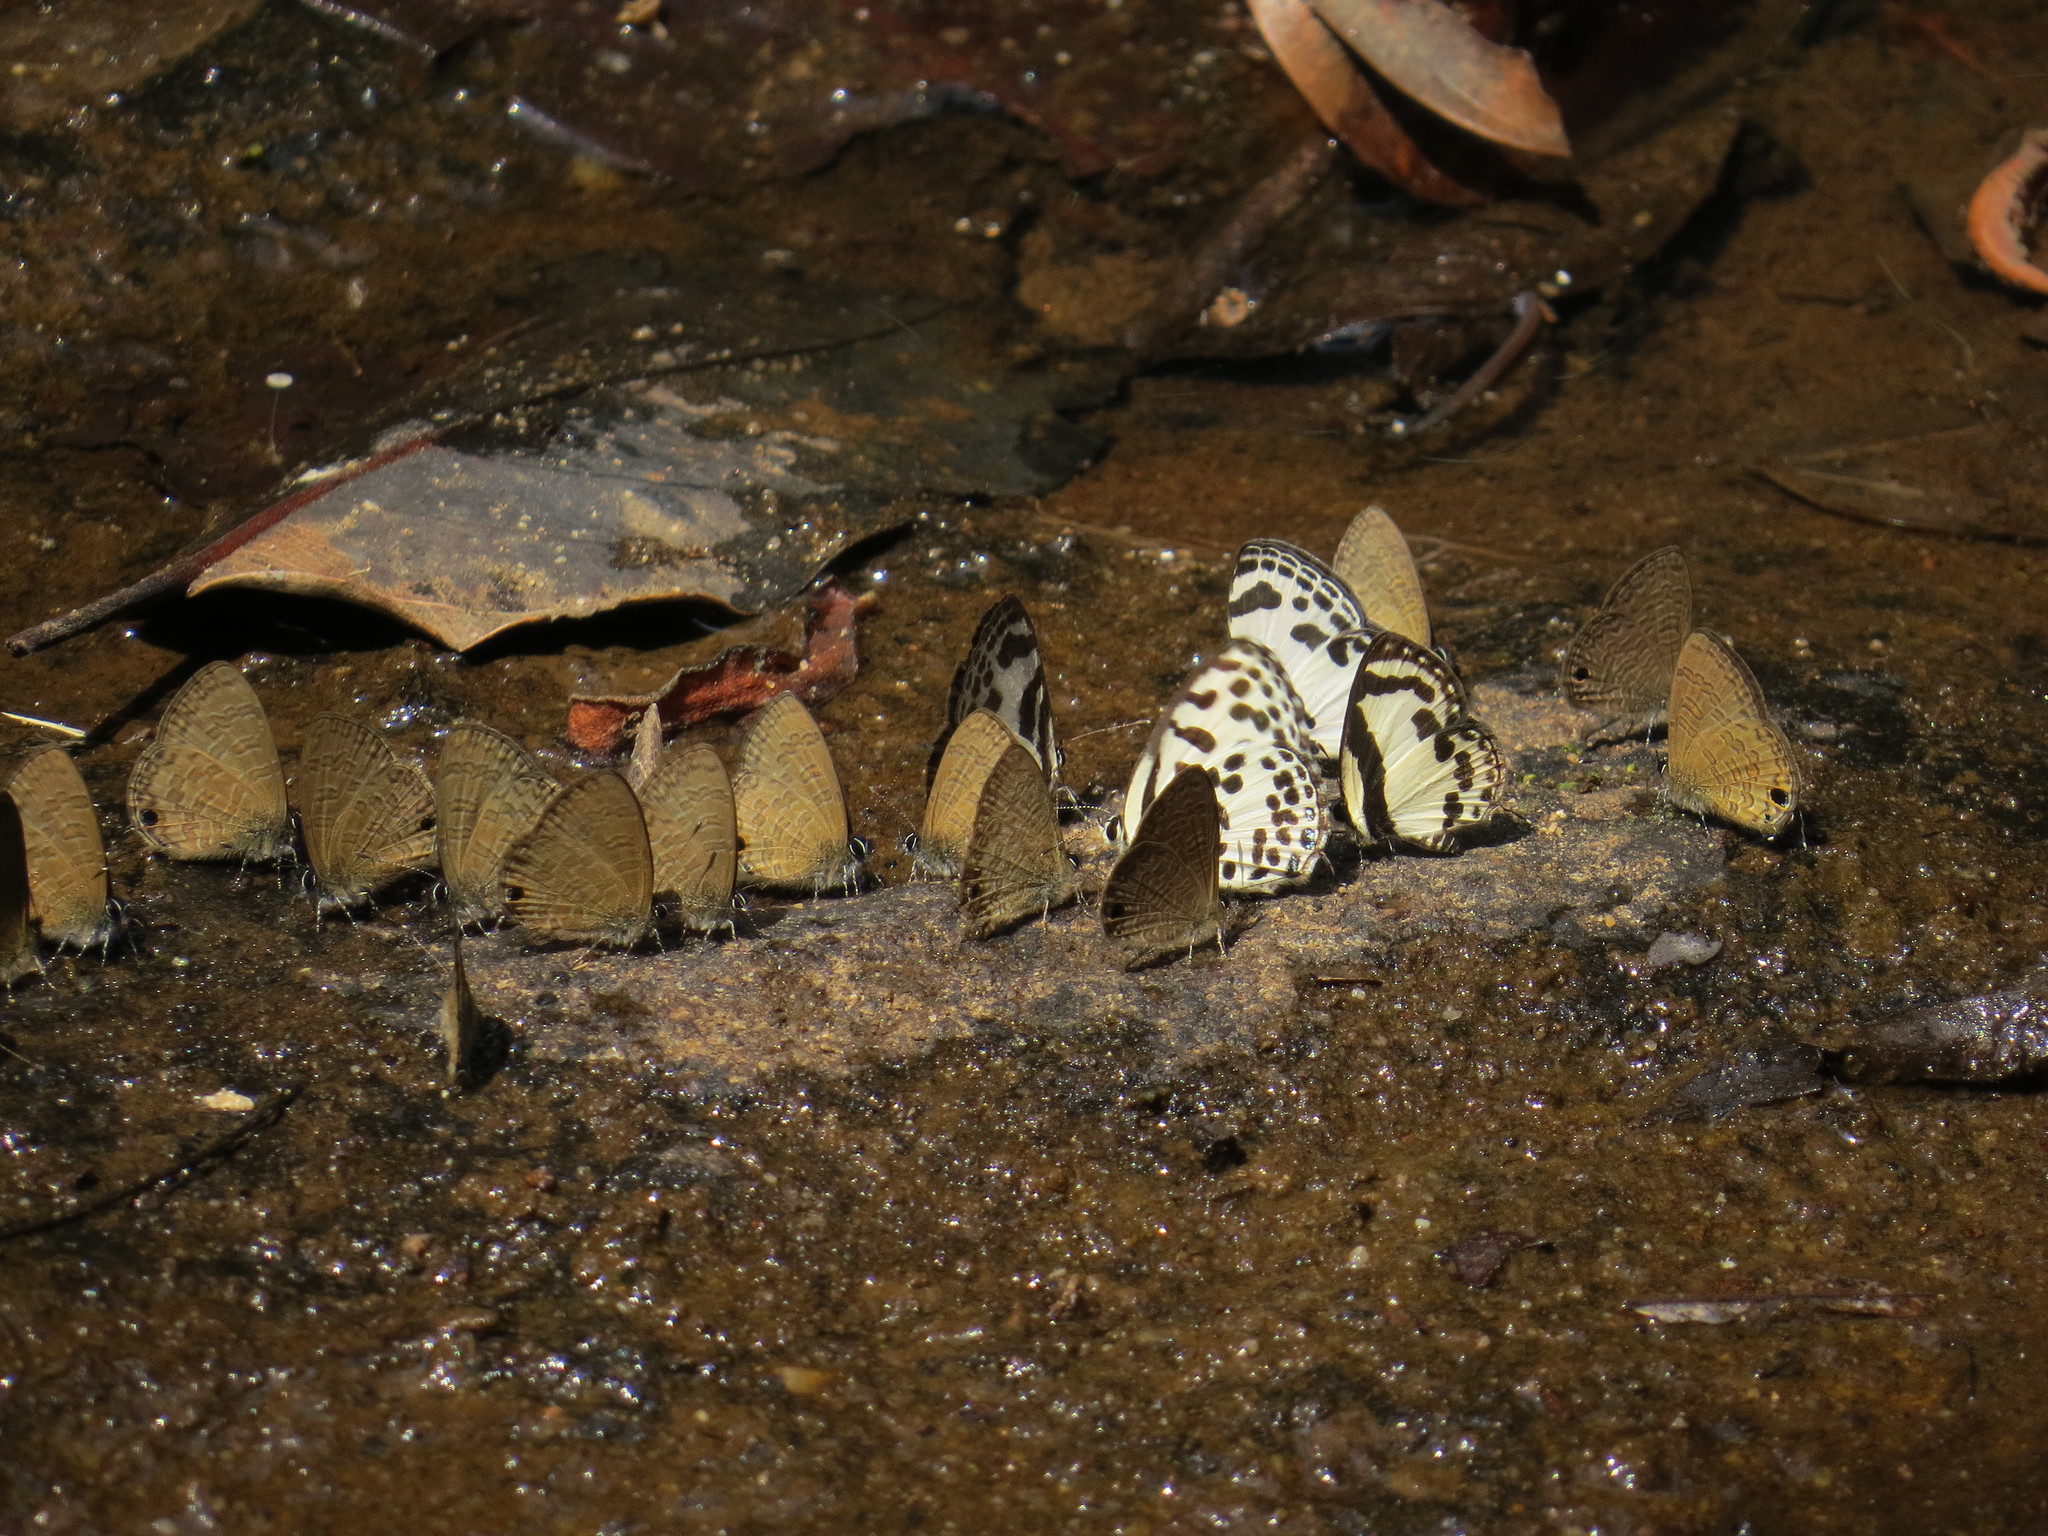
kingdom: Animalia
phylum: Arthropoda
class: Insecta
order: Lepidoptera
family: Lycaenidae
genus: Caleta
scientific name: Caleta roxus
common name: Straight pierrot
